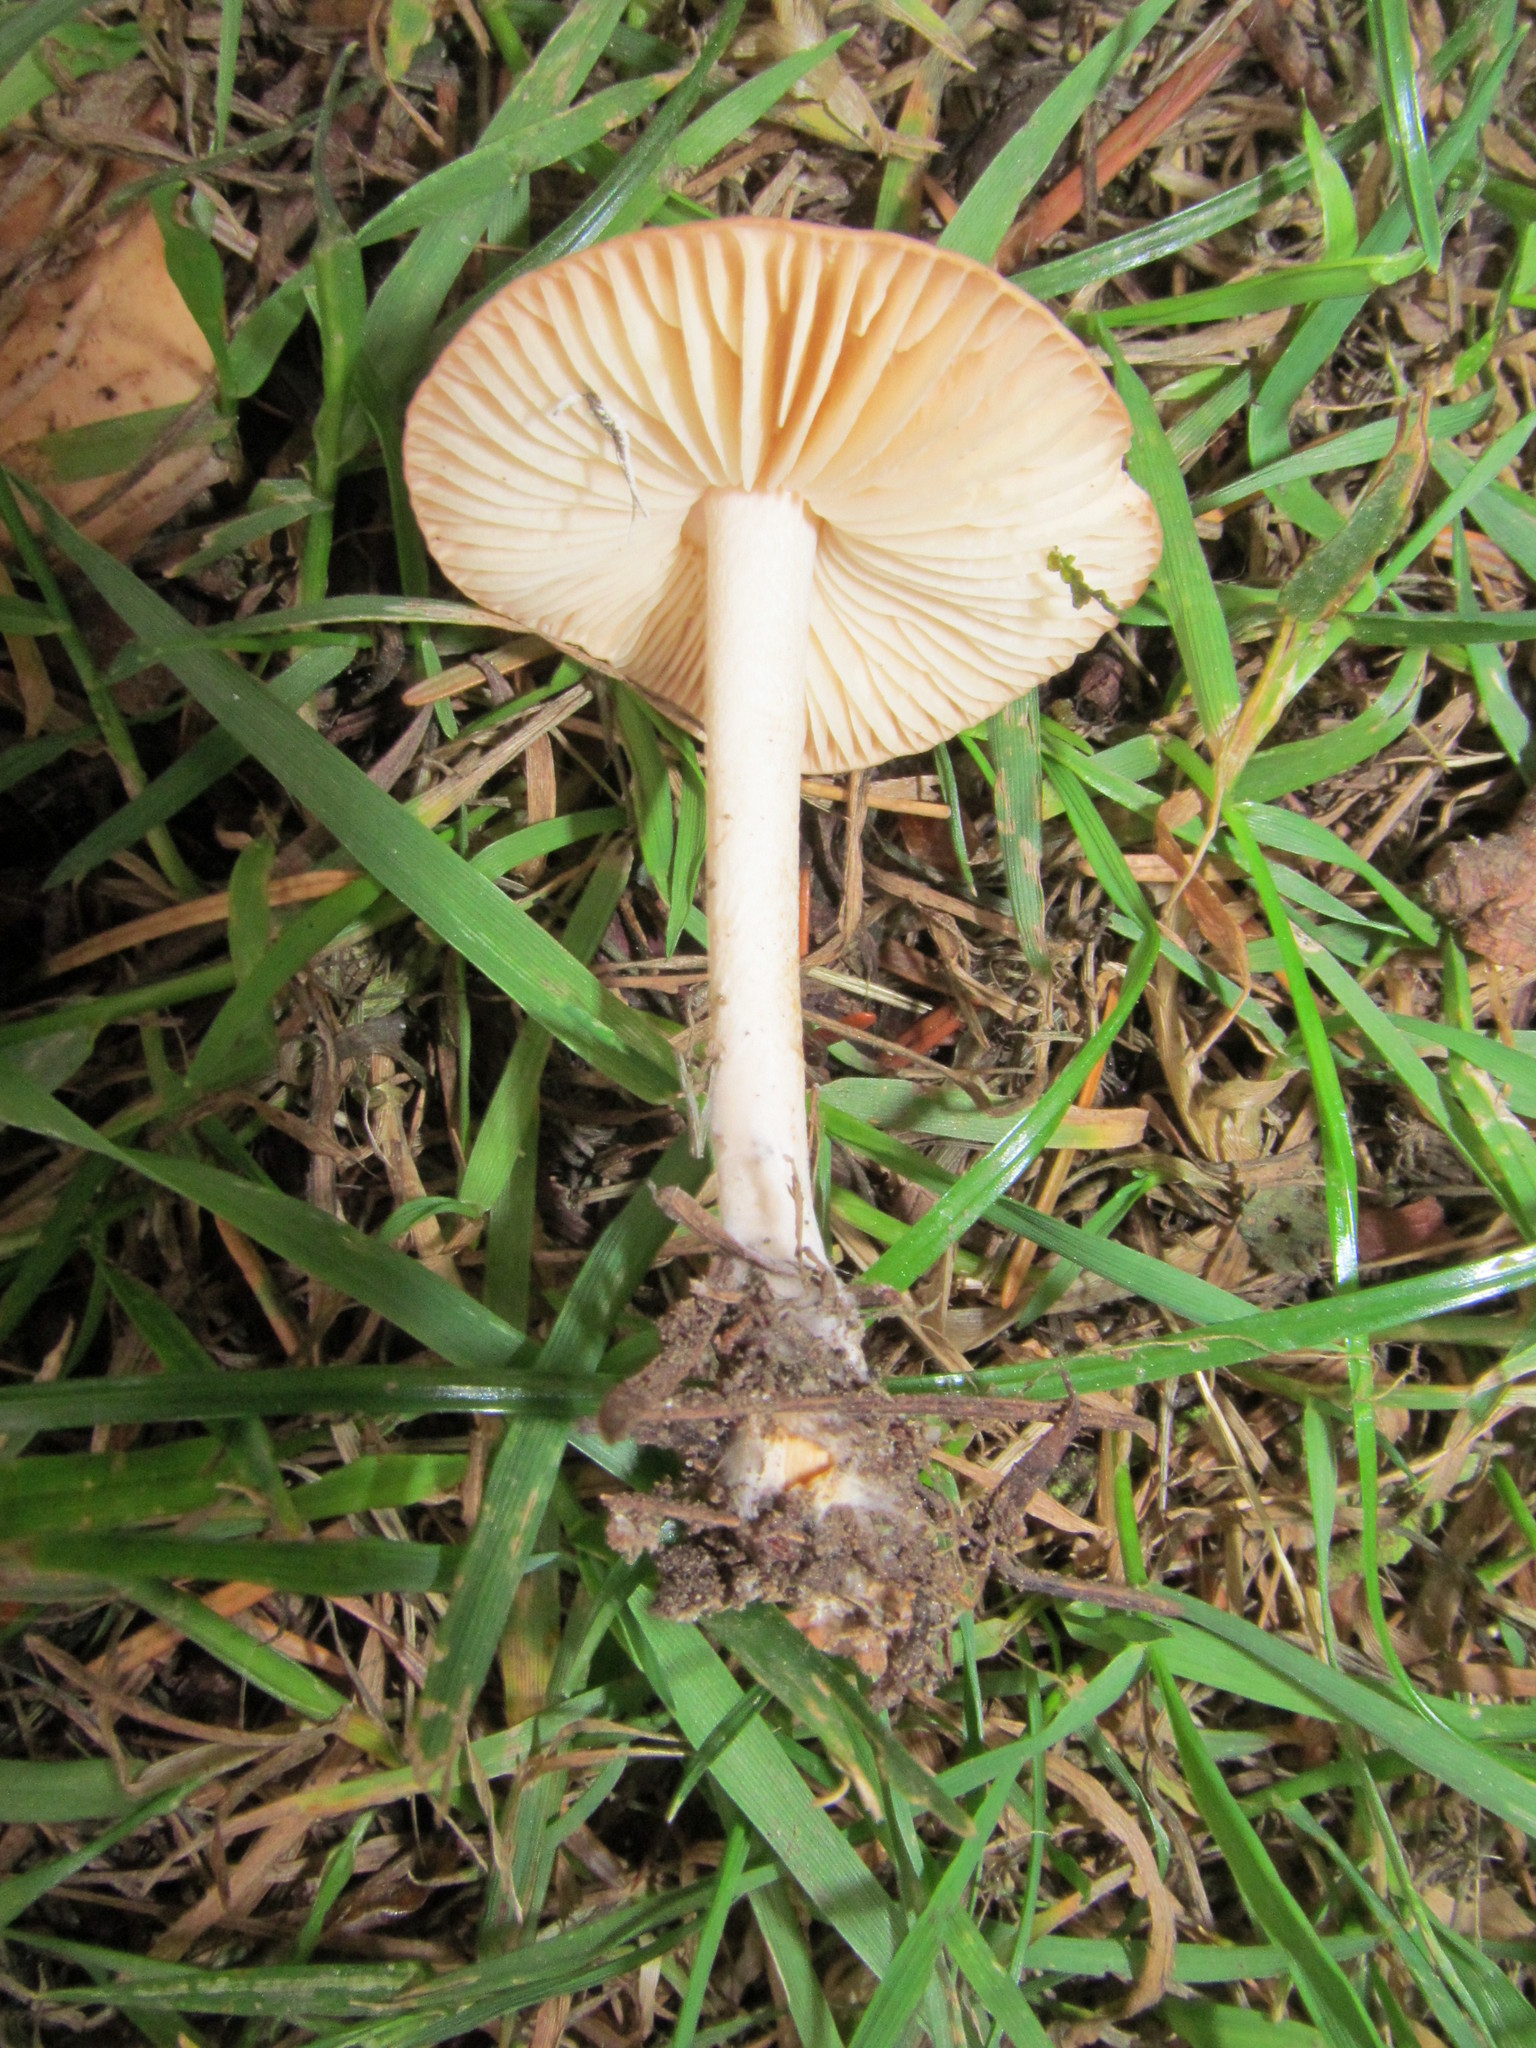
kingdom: Fungi
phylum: Basidiomycota
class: Agaricomycetes
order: Agaricales
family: Marasmiaceae
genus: Marasmius
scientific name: Marasmius oreades
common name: Fairy ring champignon
